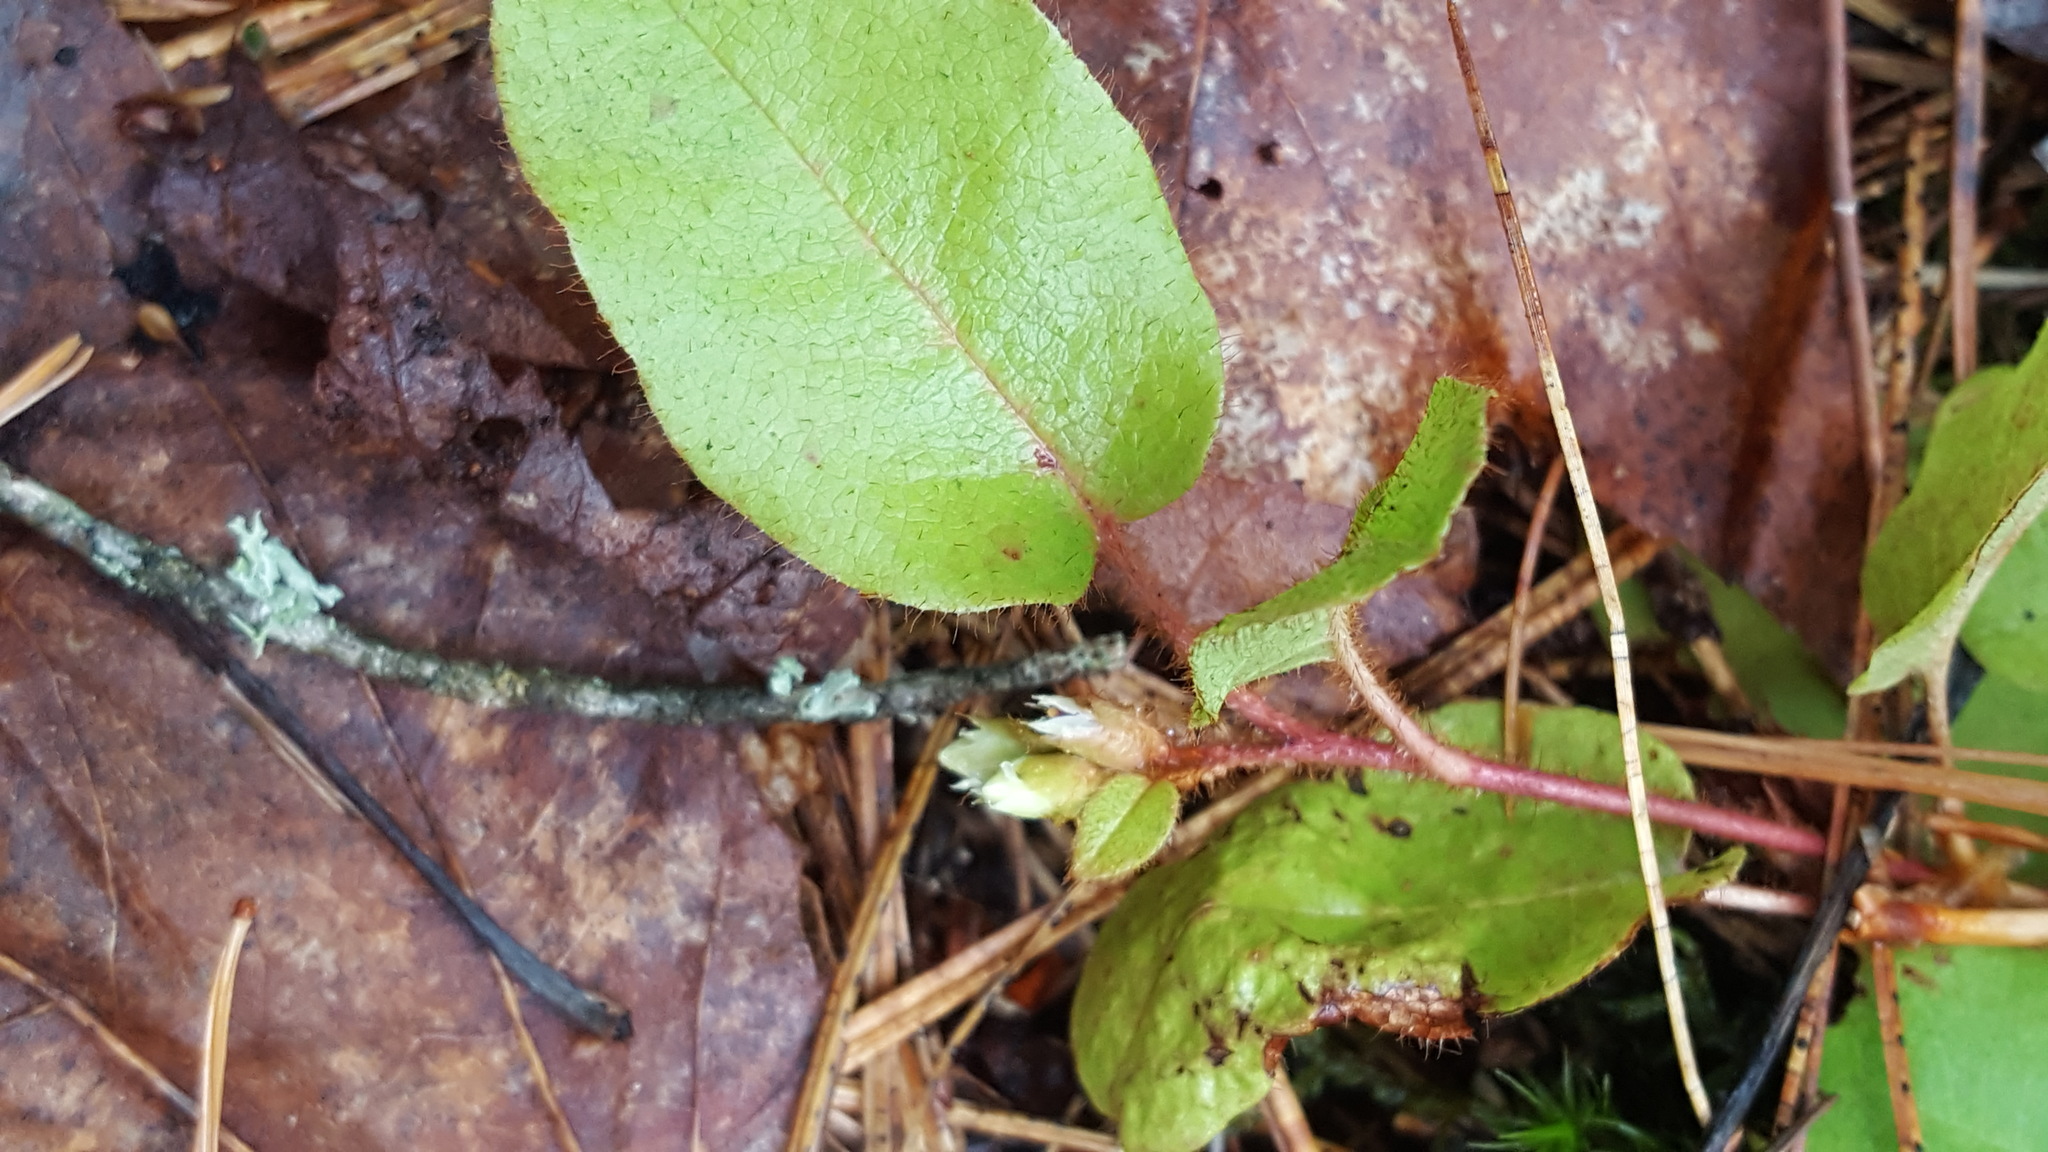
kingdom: Plantae
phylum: Tracheophyta
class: Magnoliopsida
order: Ericales
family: Ericaceae
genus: Epigaea
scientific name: Epigaea repens
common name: Gravelroot
